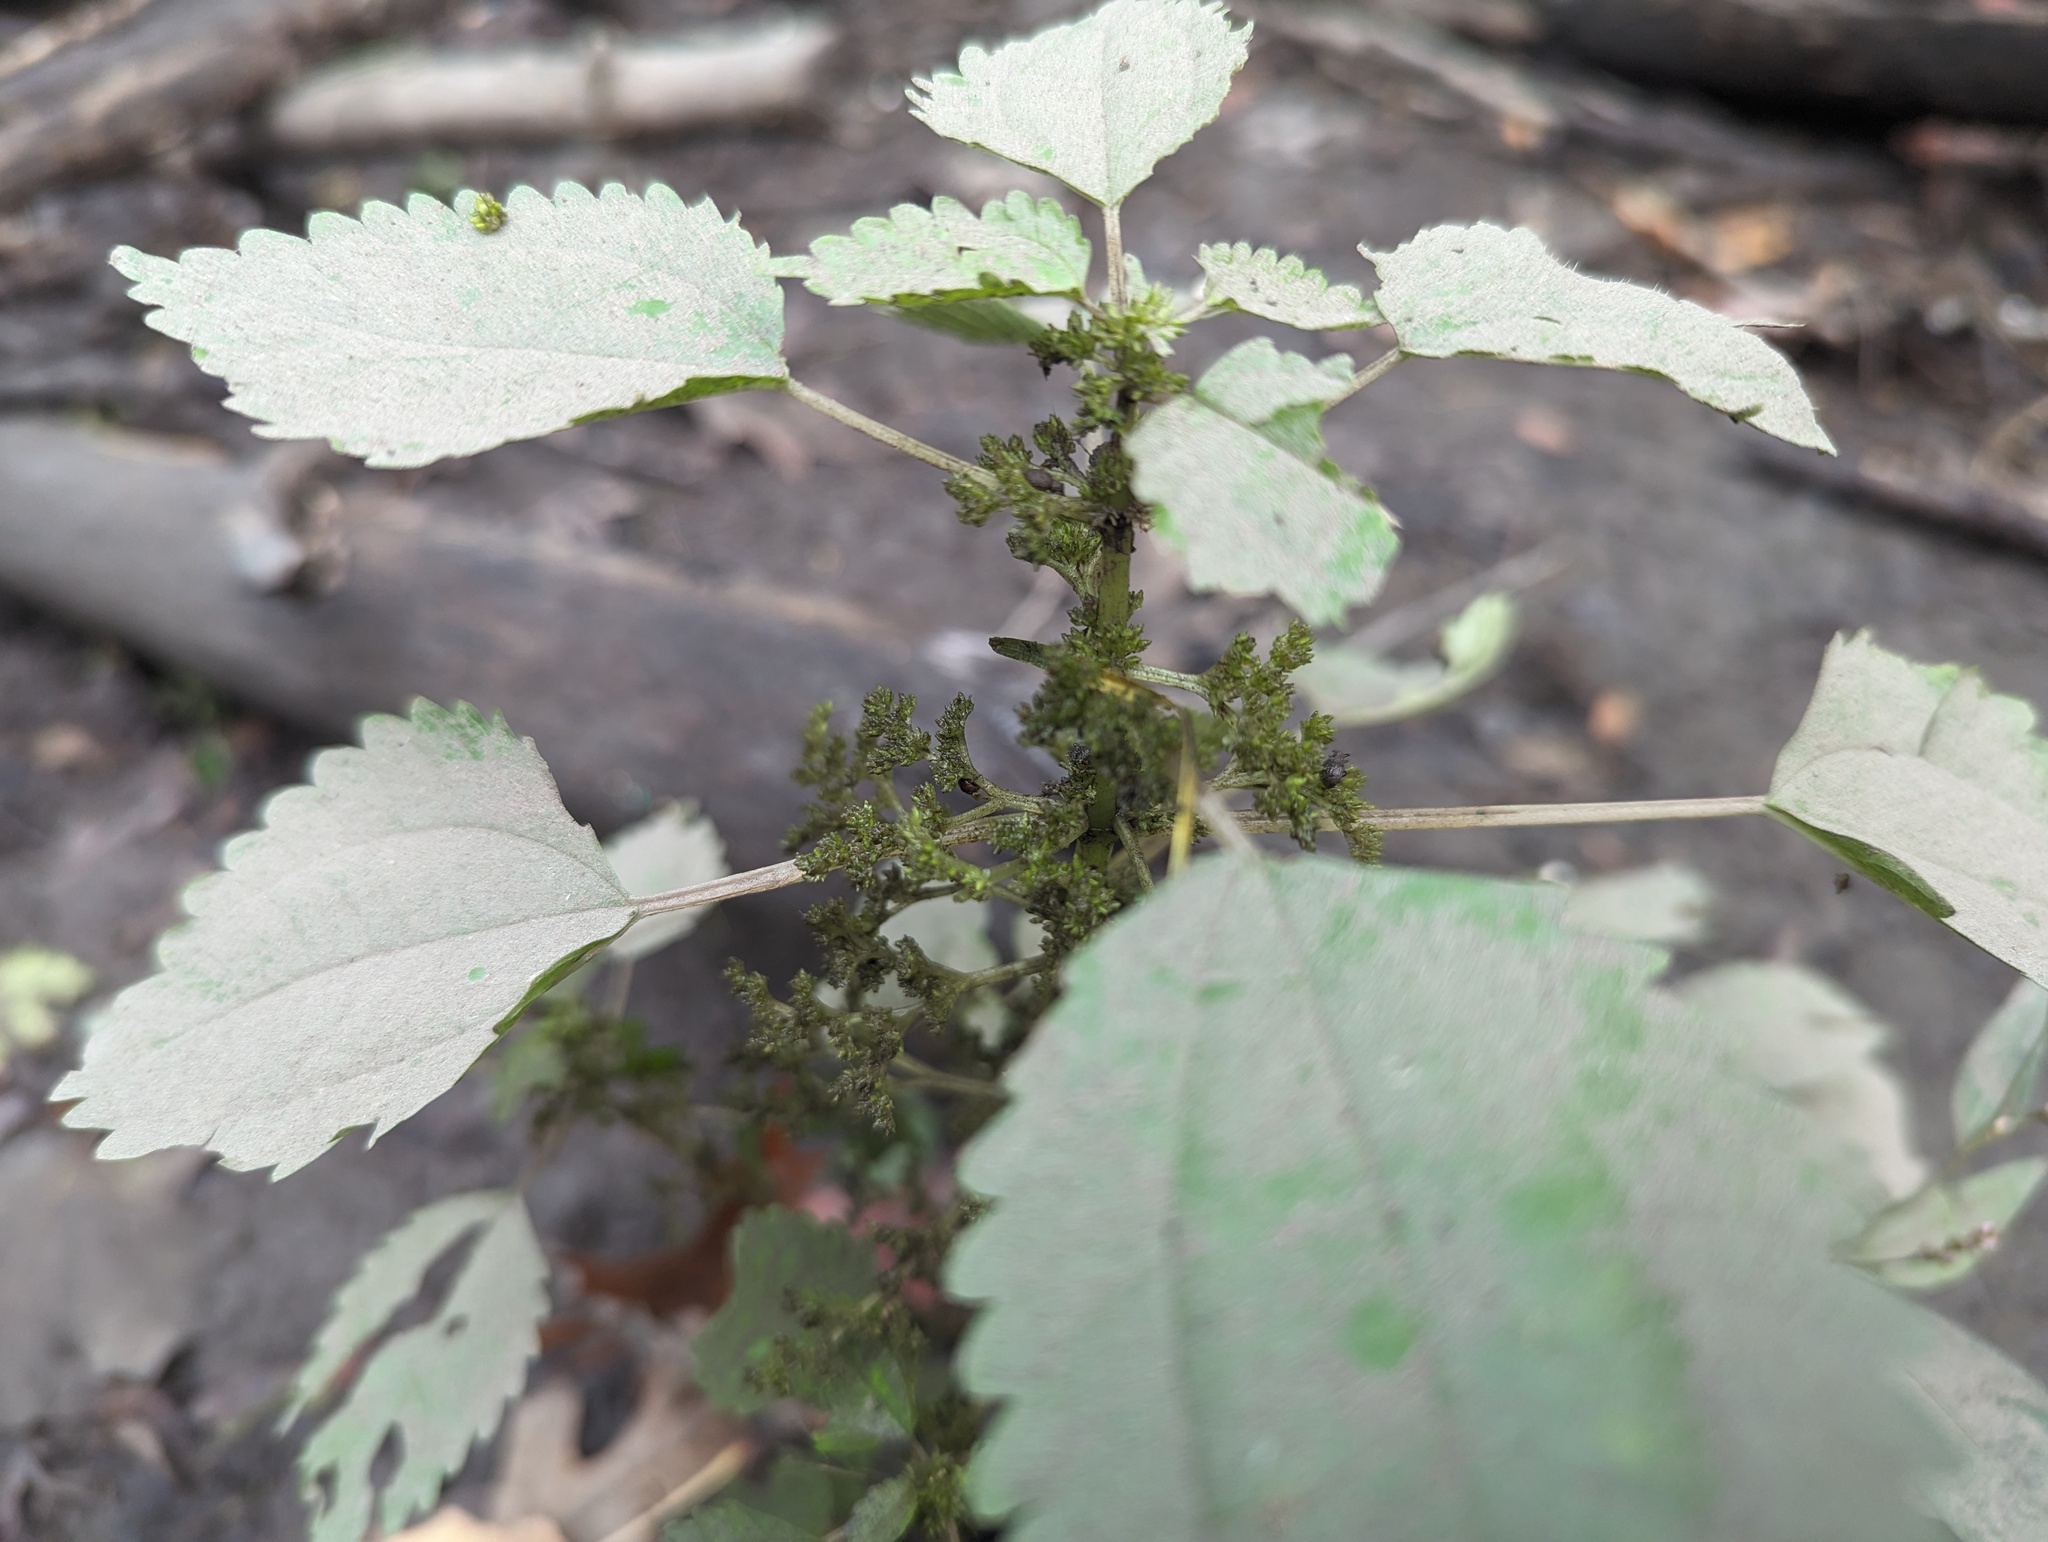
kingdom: Plantae
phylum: Tracheophyta
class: Magnoliopsida
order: Rosales
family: Urticaceae
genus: Pilea
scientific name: Pilea pumila
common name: Clearweed
